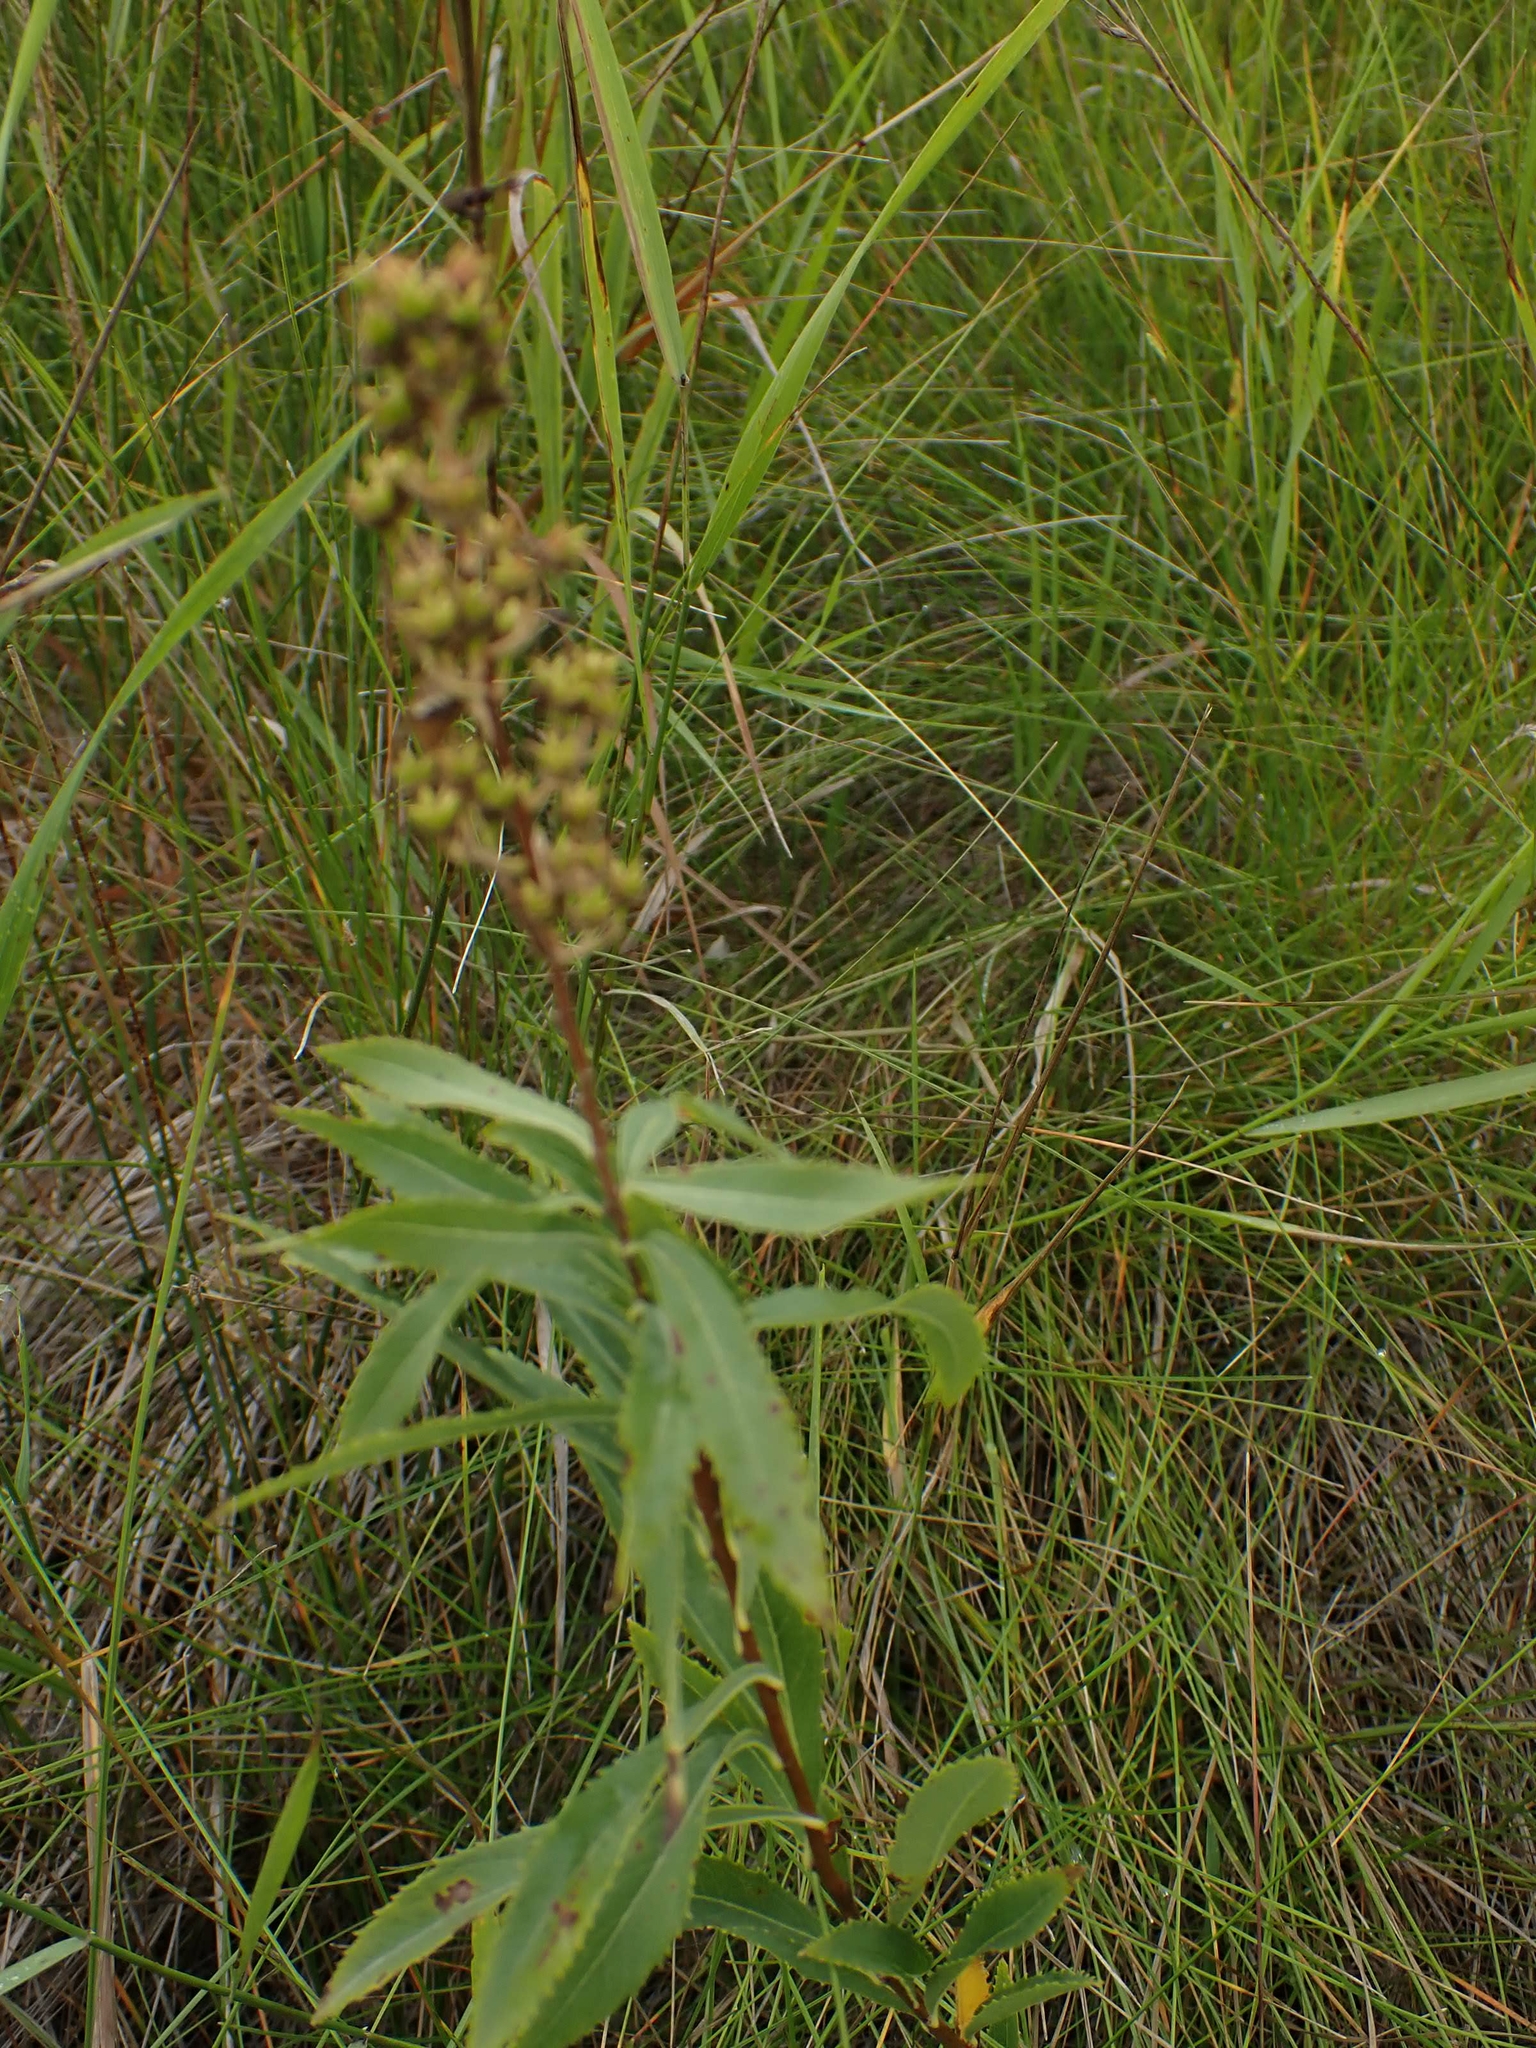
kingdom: Plantae
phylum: Tracheophyta
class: Magnoliopsida
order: Rosales
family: Rosaceae
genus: Spiraea
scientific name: Spiraea alba
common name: Pale bridewort
